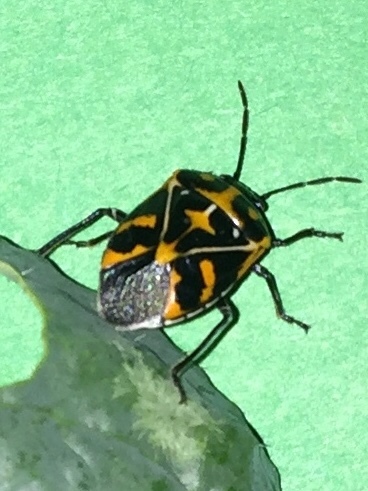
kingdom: Animalia
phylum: Arthropoda
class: Insecta
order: Hemiptera
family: Pentatomidae
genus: Murgantia
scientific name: Murgantia histrionica
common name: Harlequin bug
